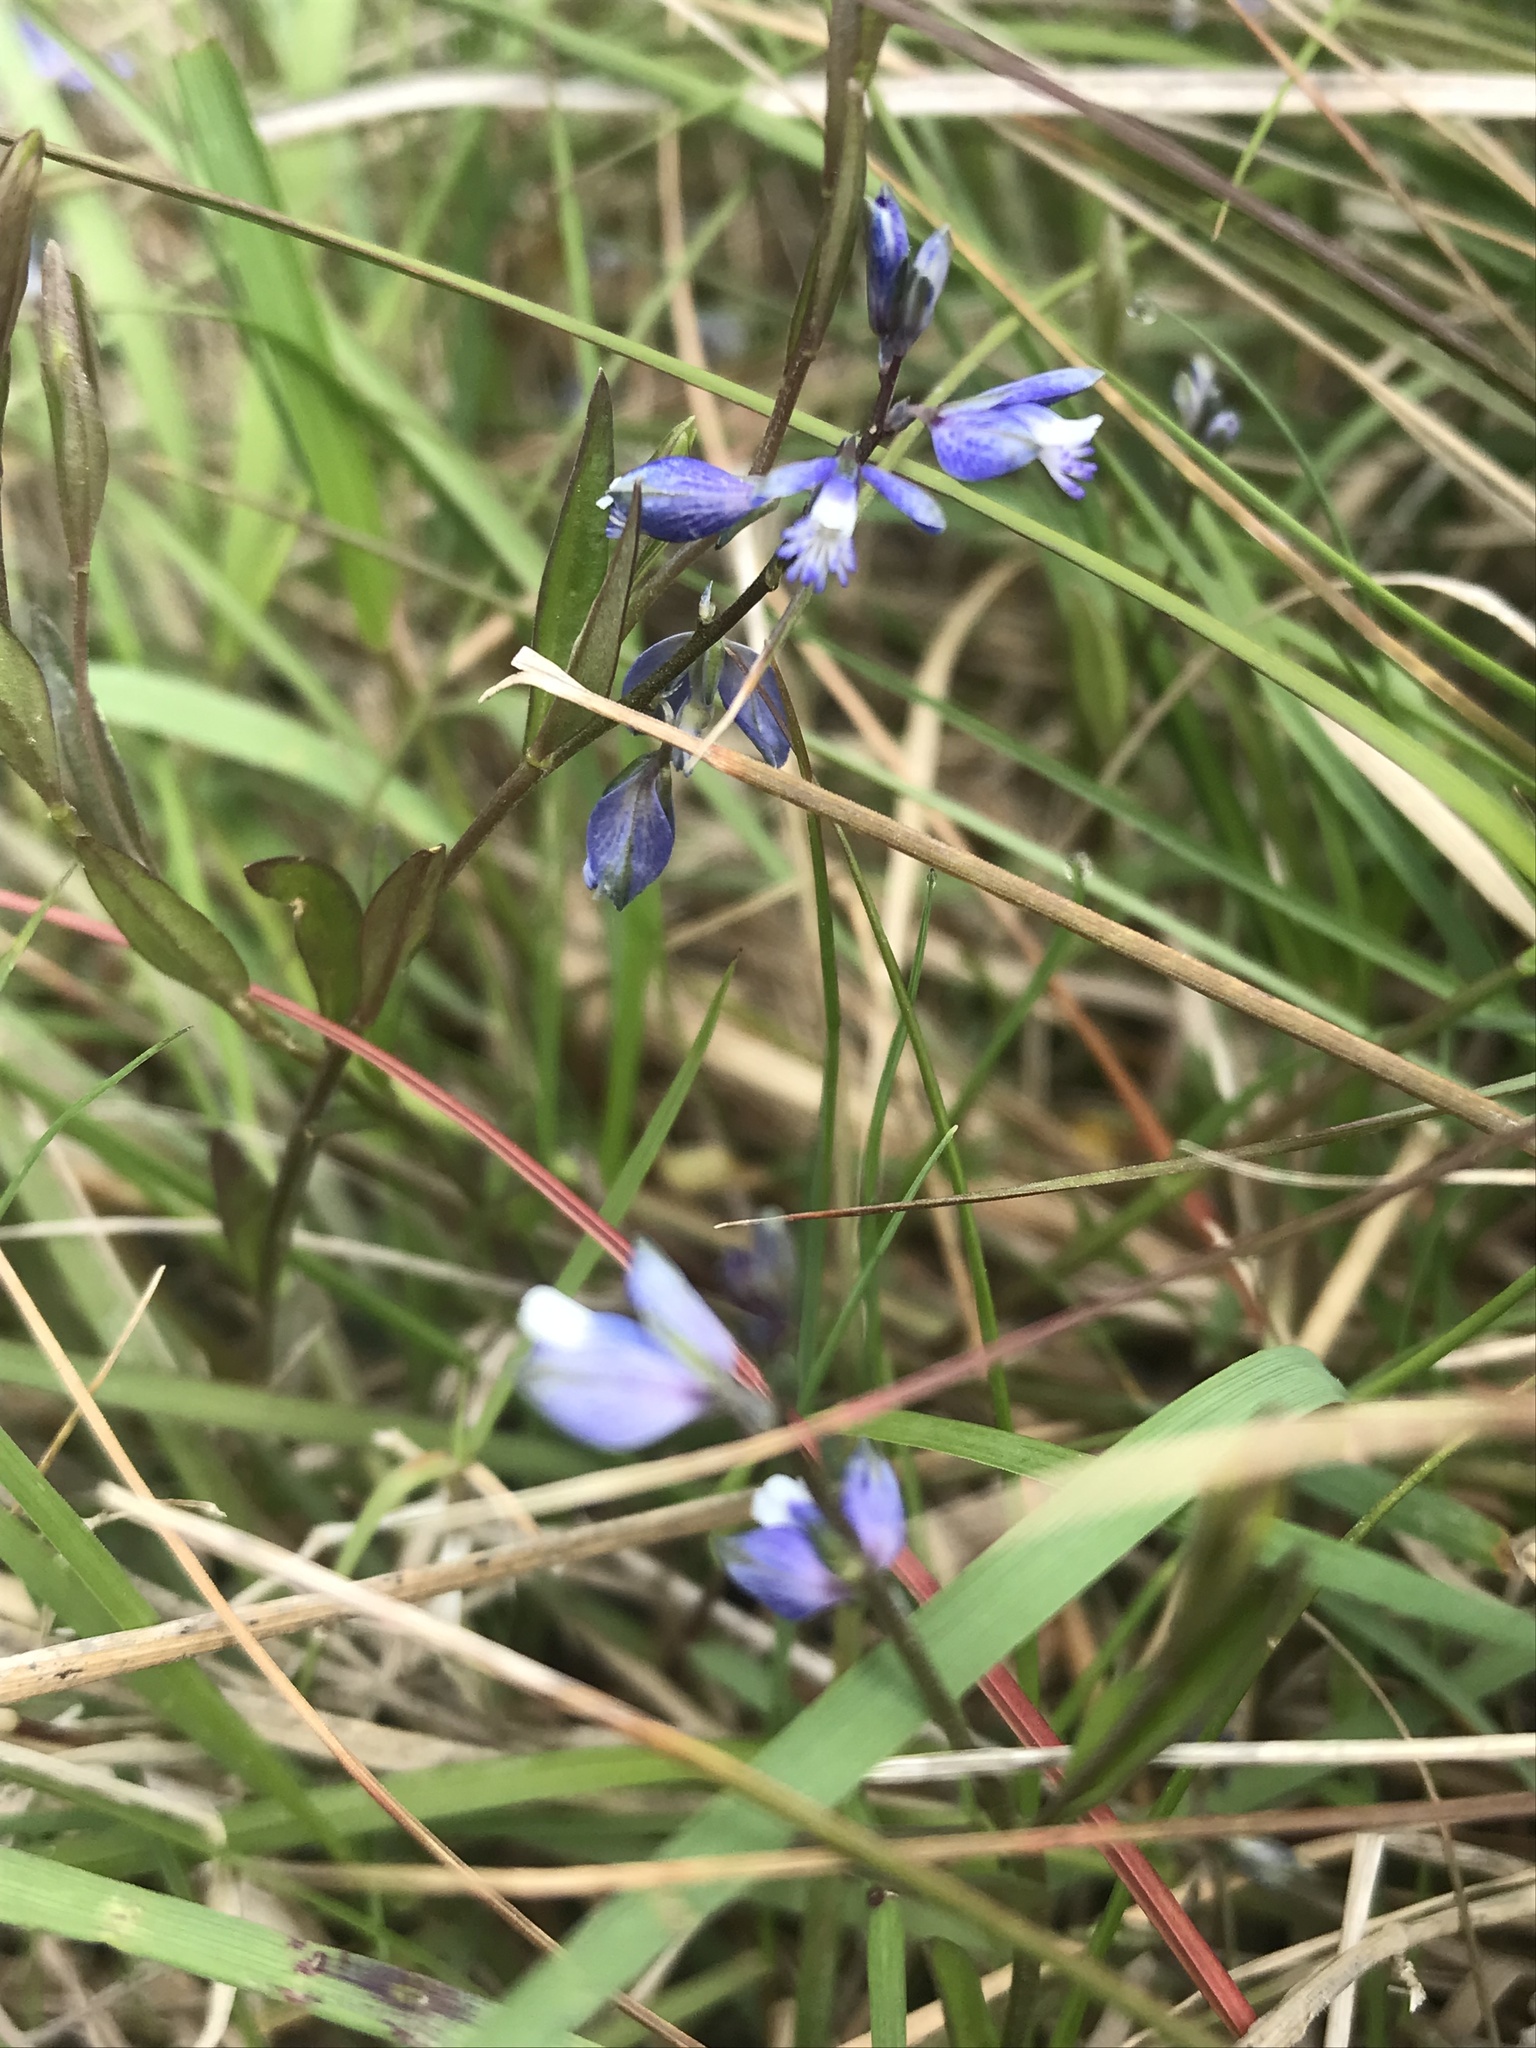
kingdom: Plantae
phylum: Tracheophyta
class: Magnoliopsida
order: Fabales
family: Polygalaceae
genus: Polygala
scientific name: Polygala serpyllifolia
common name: Heath milkwort
